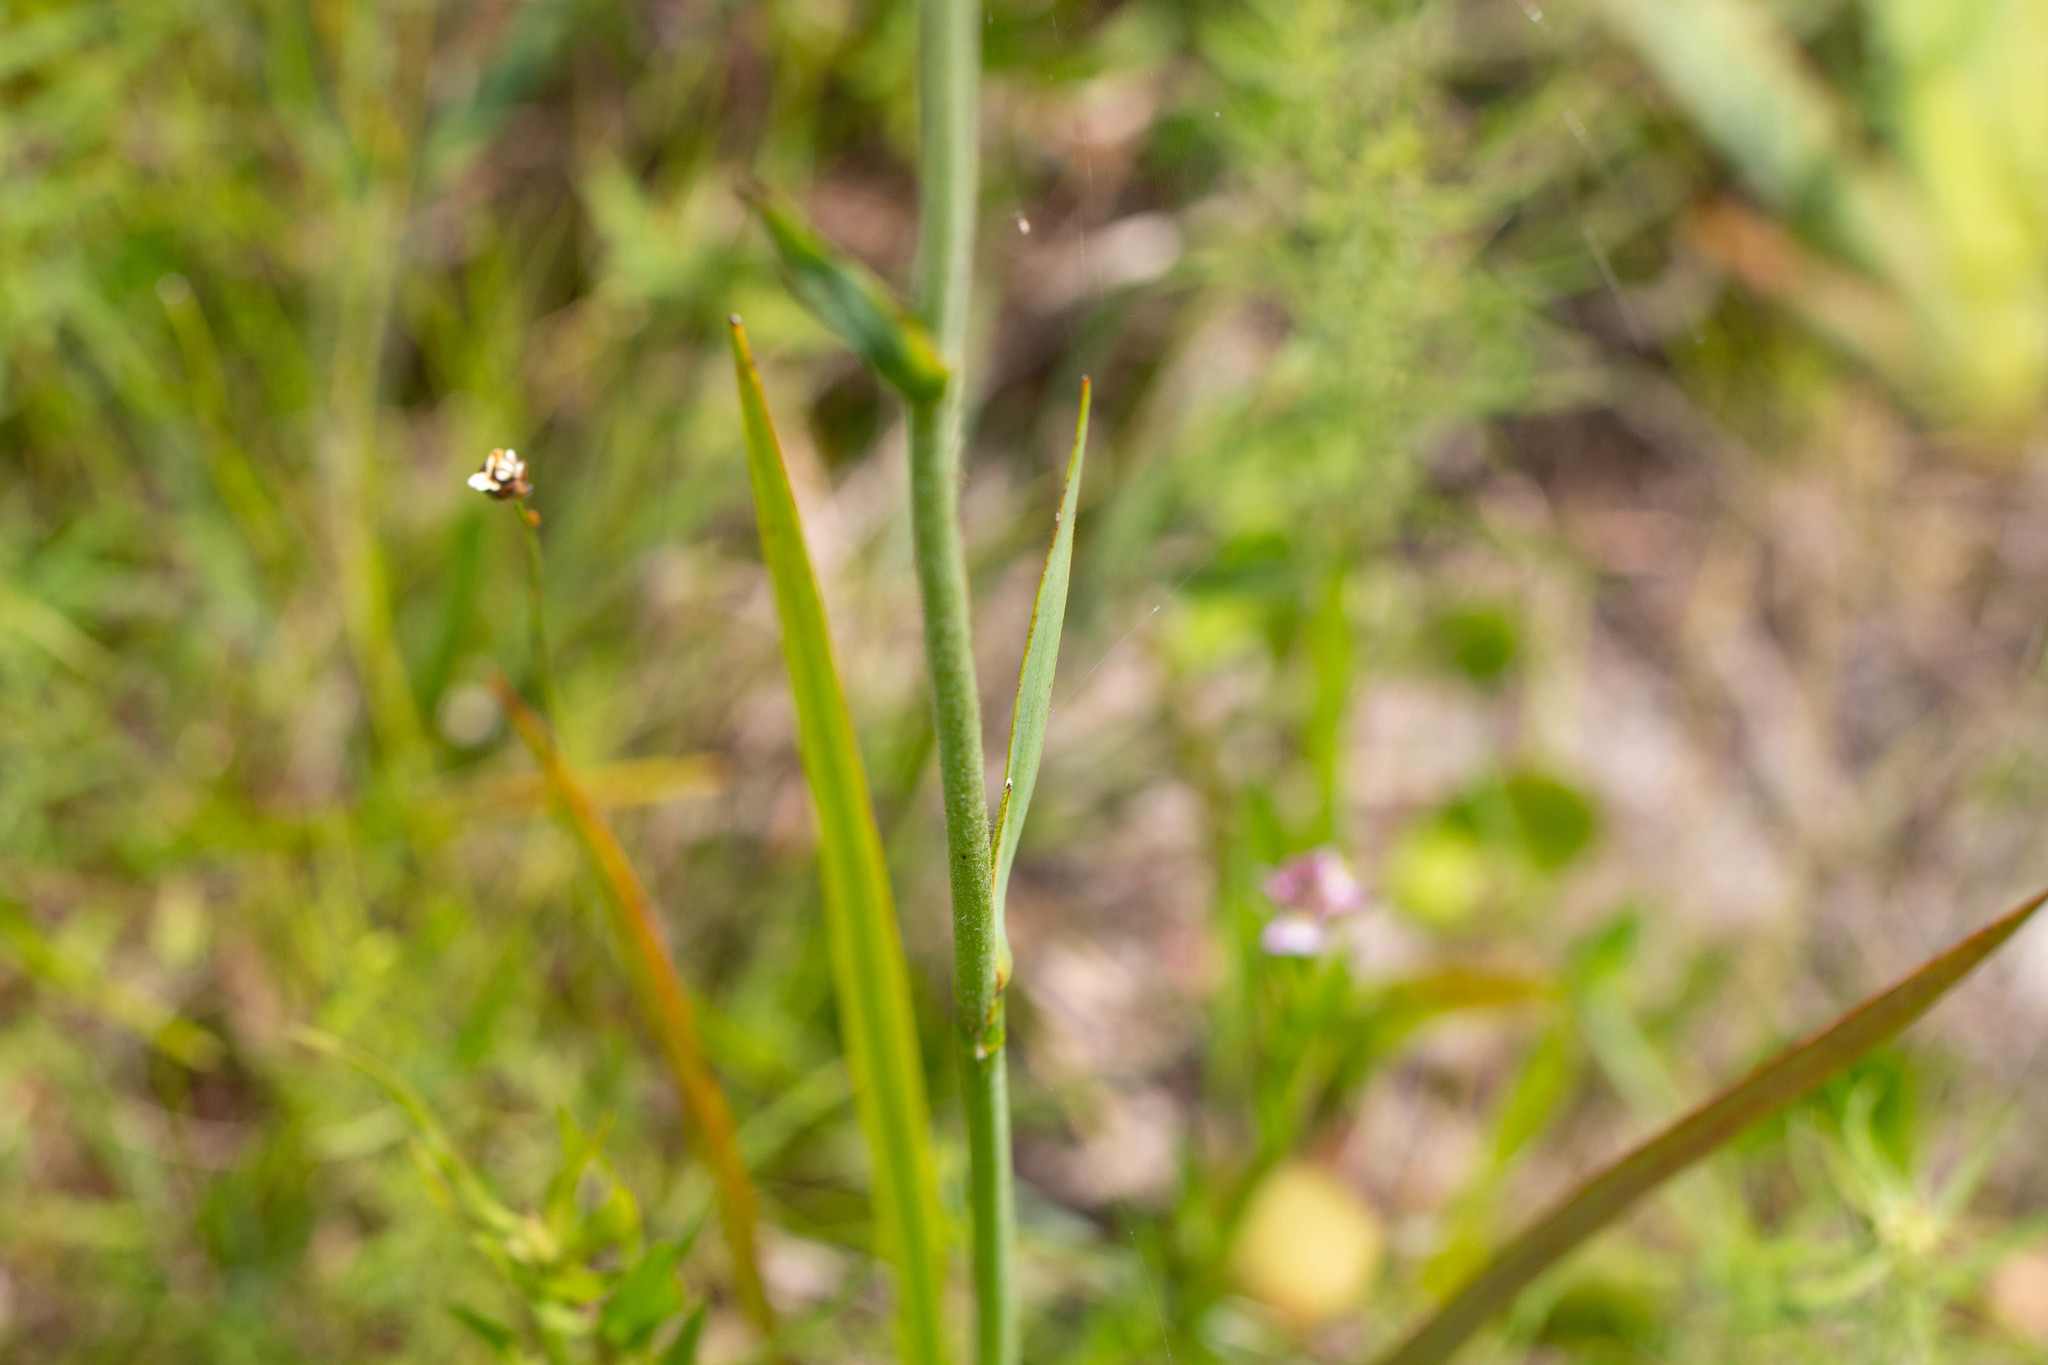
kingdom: Plantae
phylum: Tracheophyta
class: Liliopsida
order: Commelinales
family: Haemodoraceae
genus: Lachnanthes
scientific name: Lachnanthes caroliana
